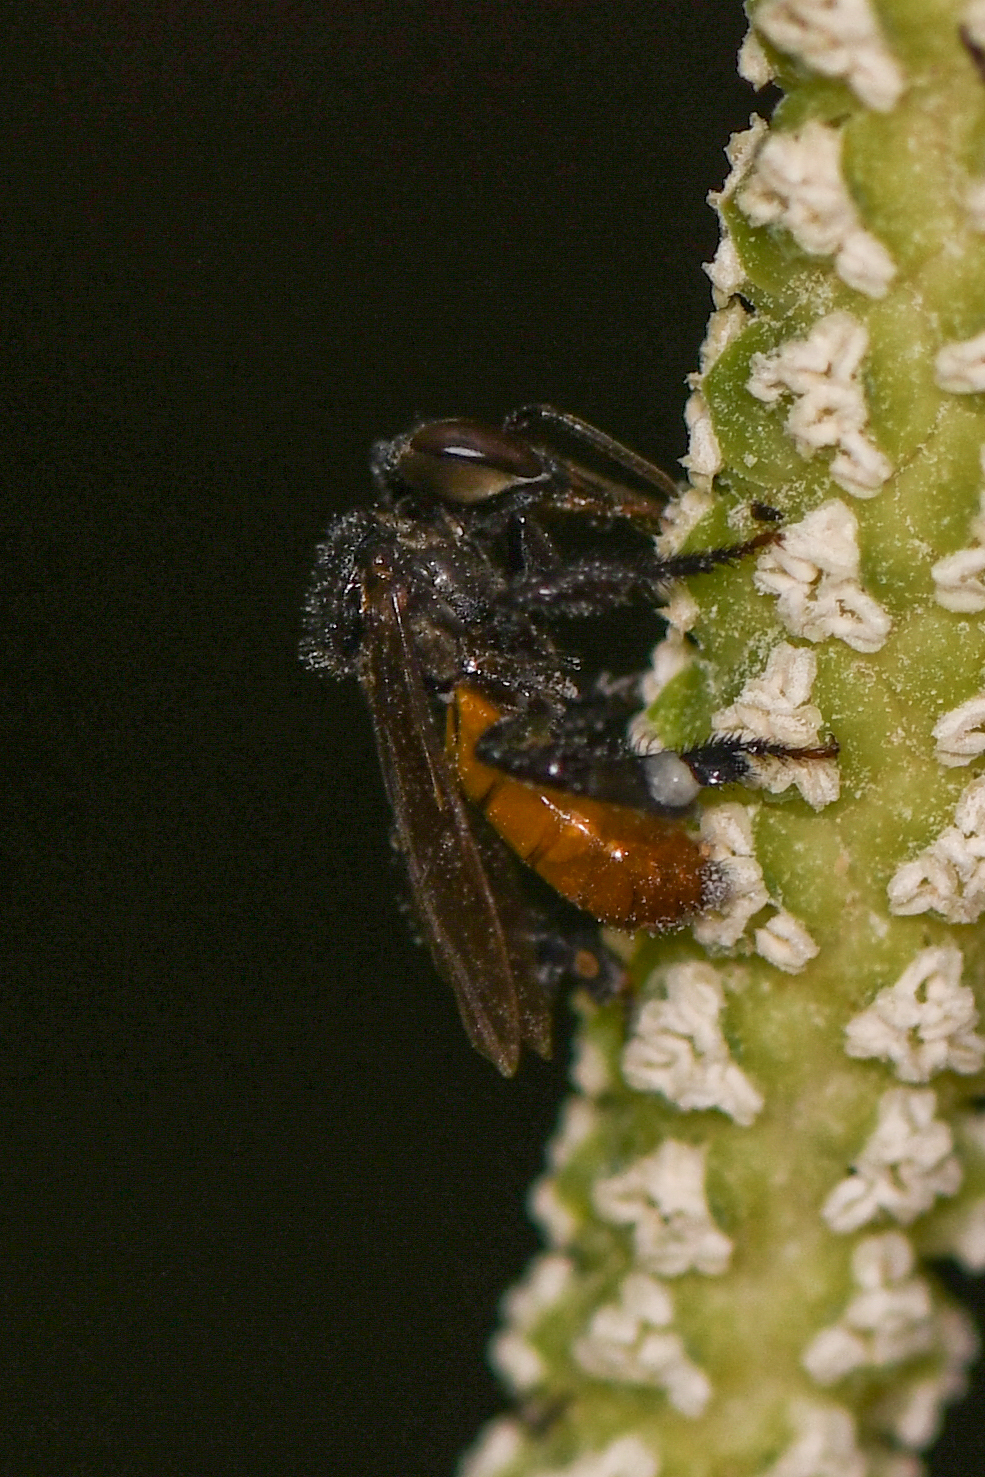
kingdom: Animalia
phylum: Arthropoda
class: Insecta
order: Hymenoptera
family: Apidae
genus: Trigona
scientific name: Trigona fulviventris
